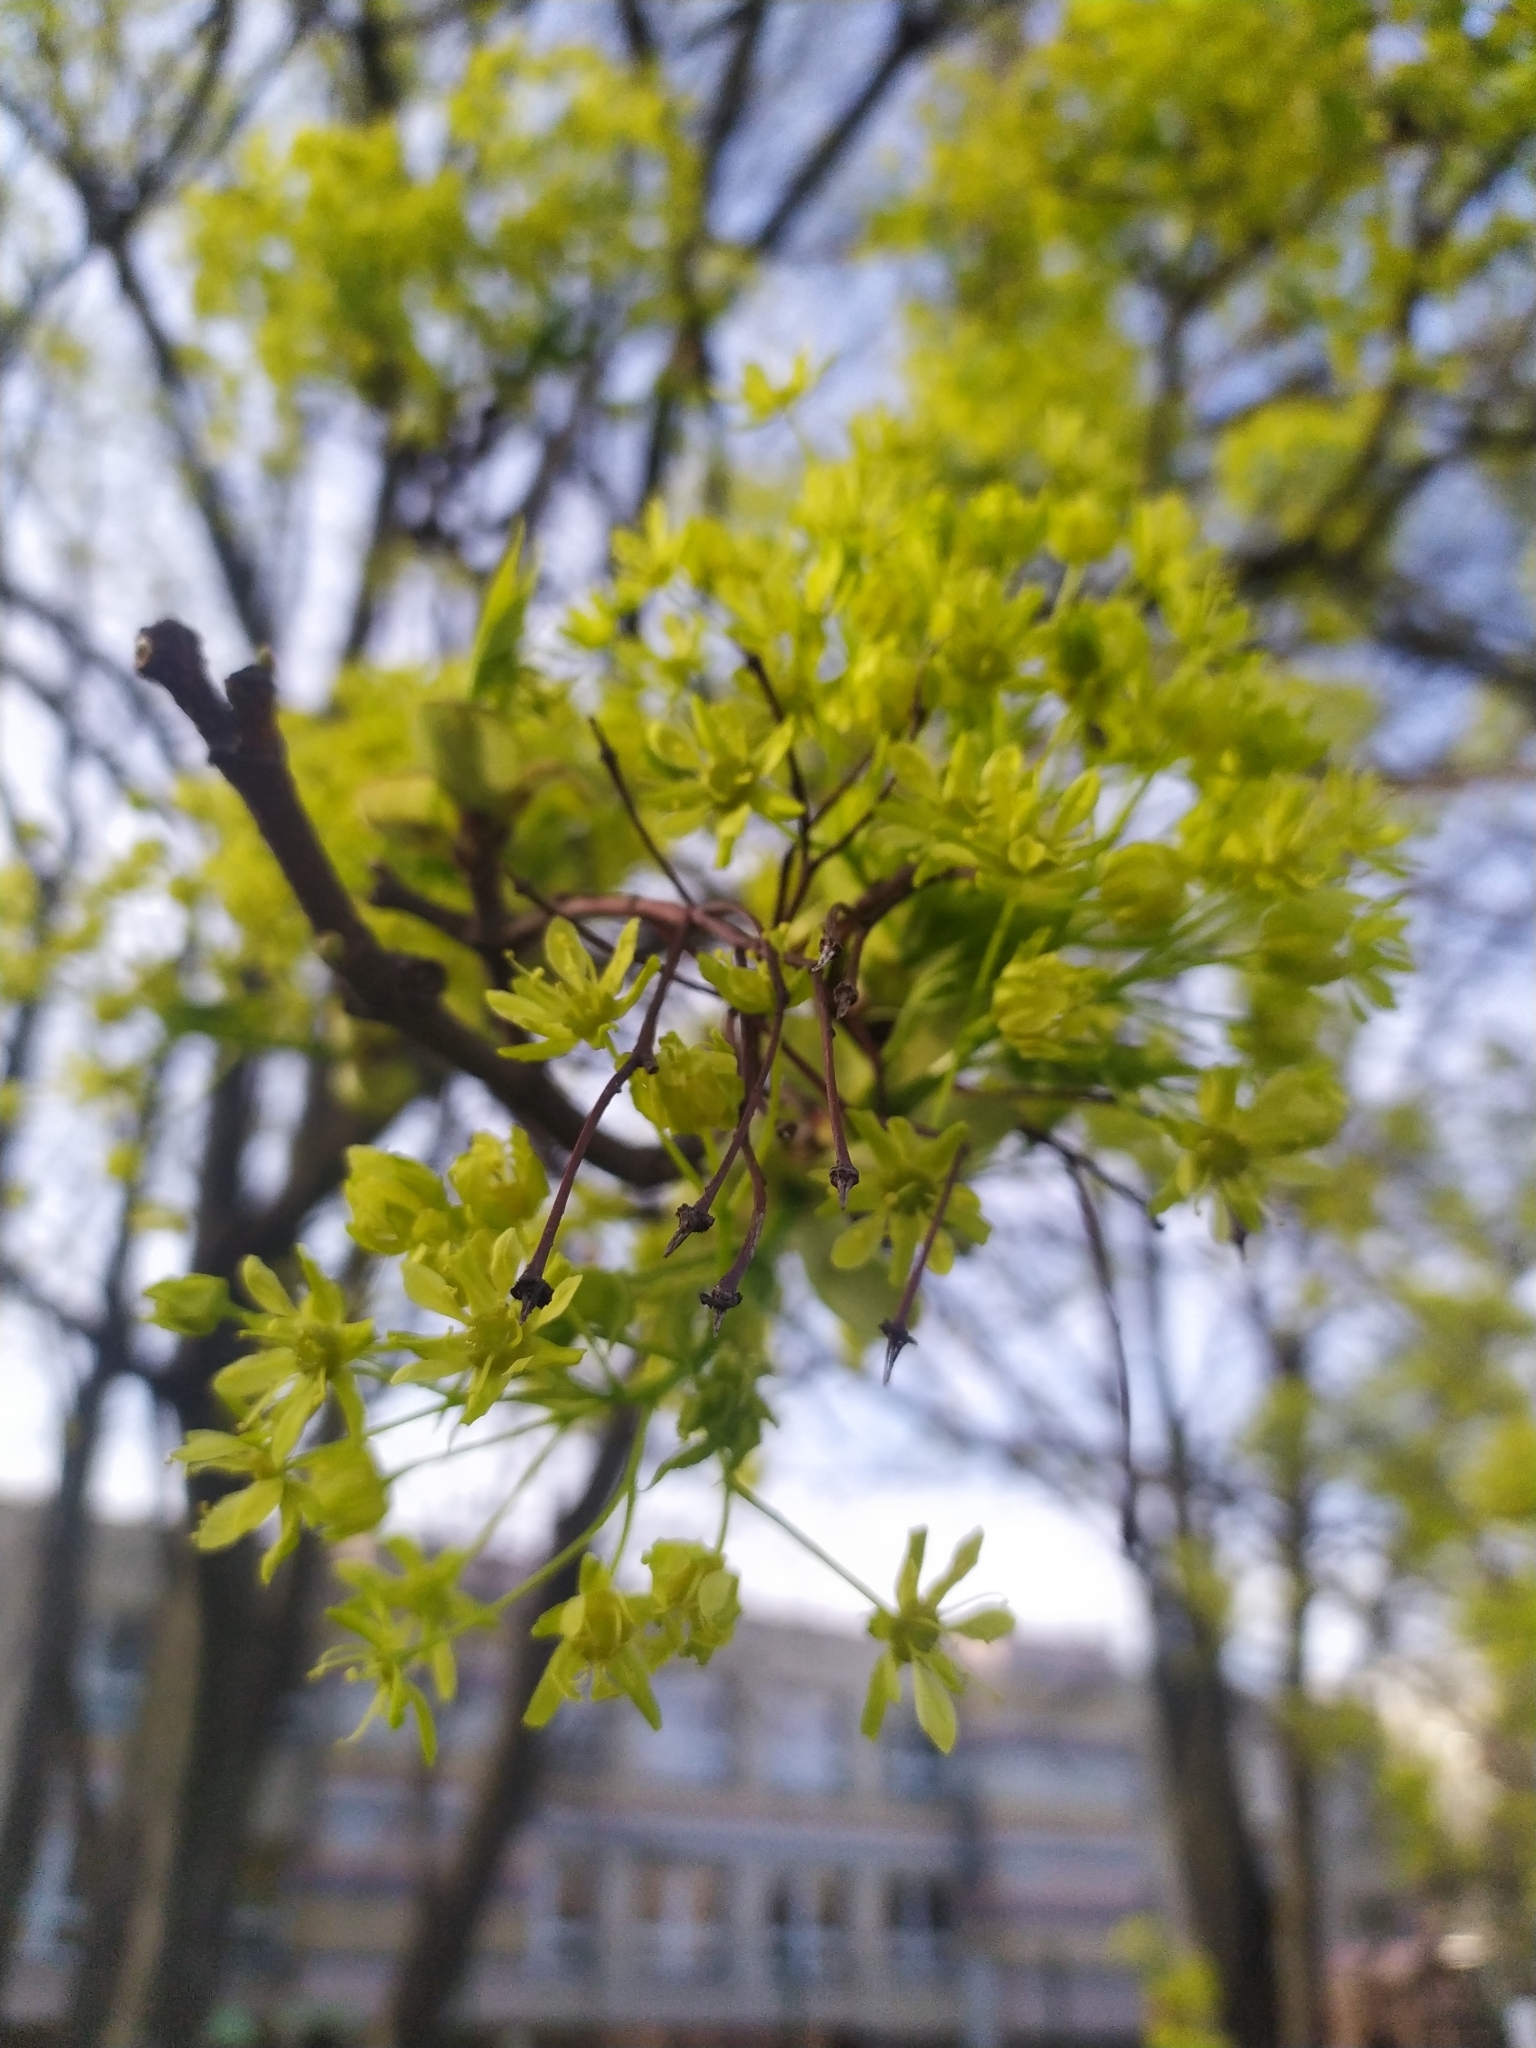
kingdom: Plantae
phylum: Tracheophyta
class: Magnoliopsida
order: Sapindales
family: Sapindaceae
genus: Acer
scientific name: Acer platanoides
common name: Norway maple
